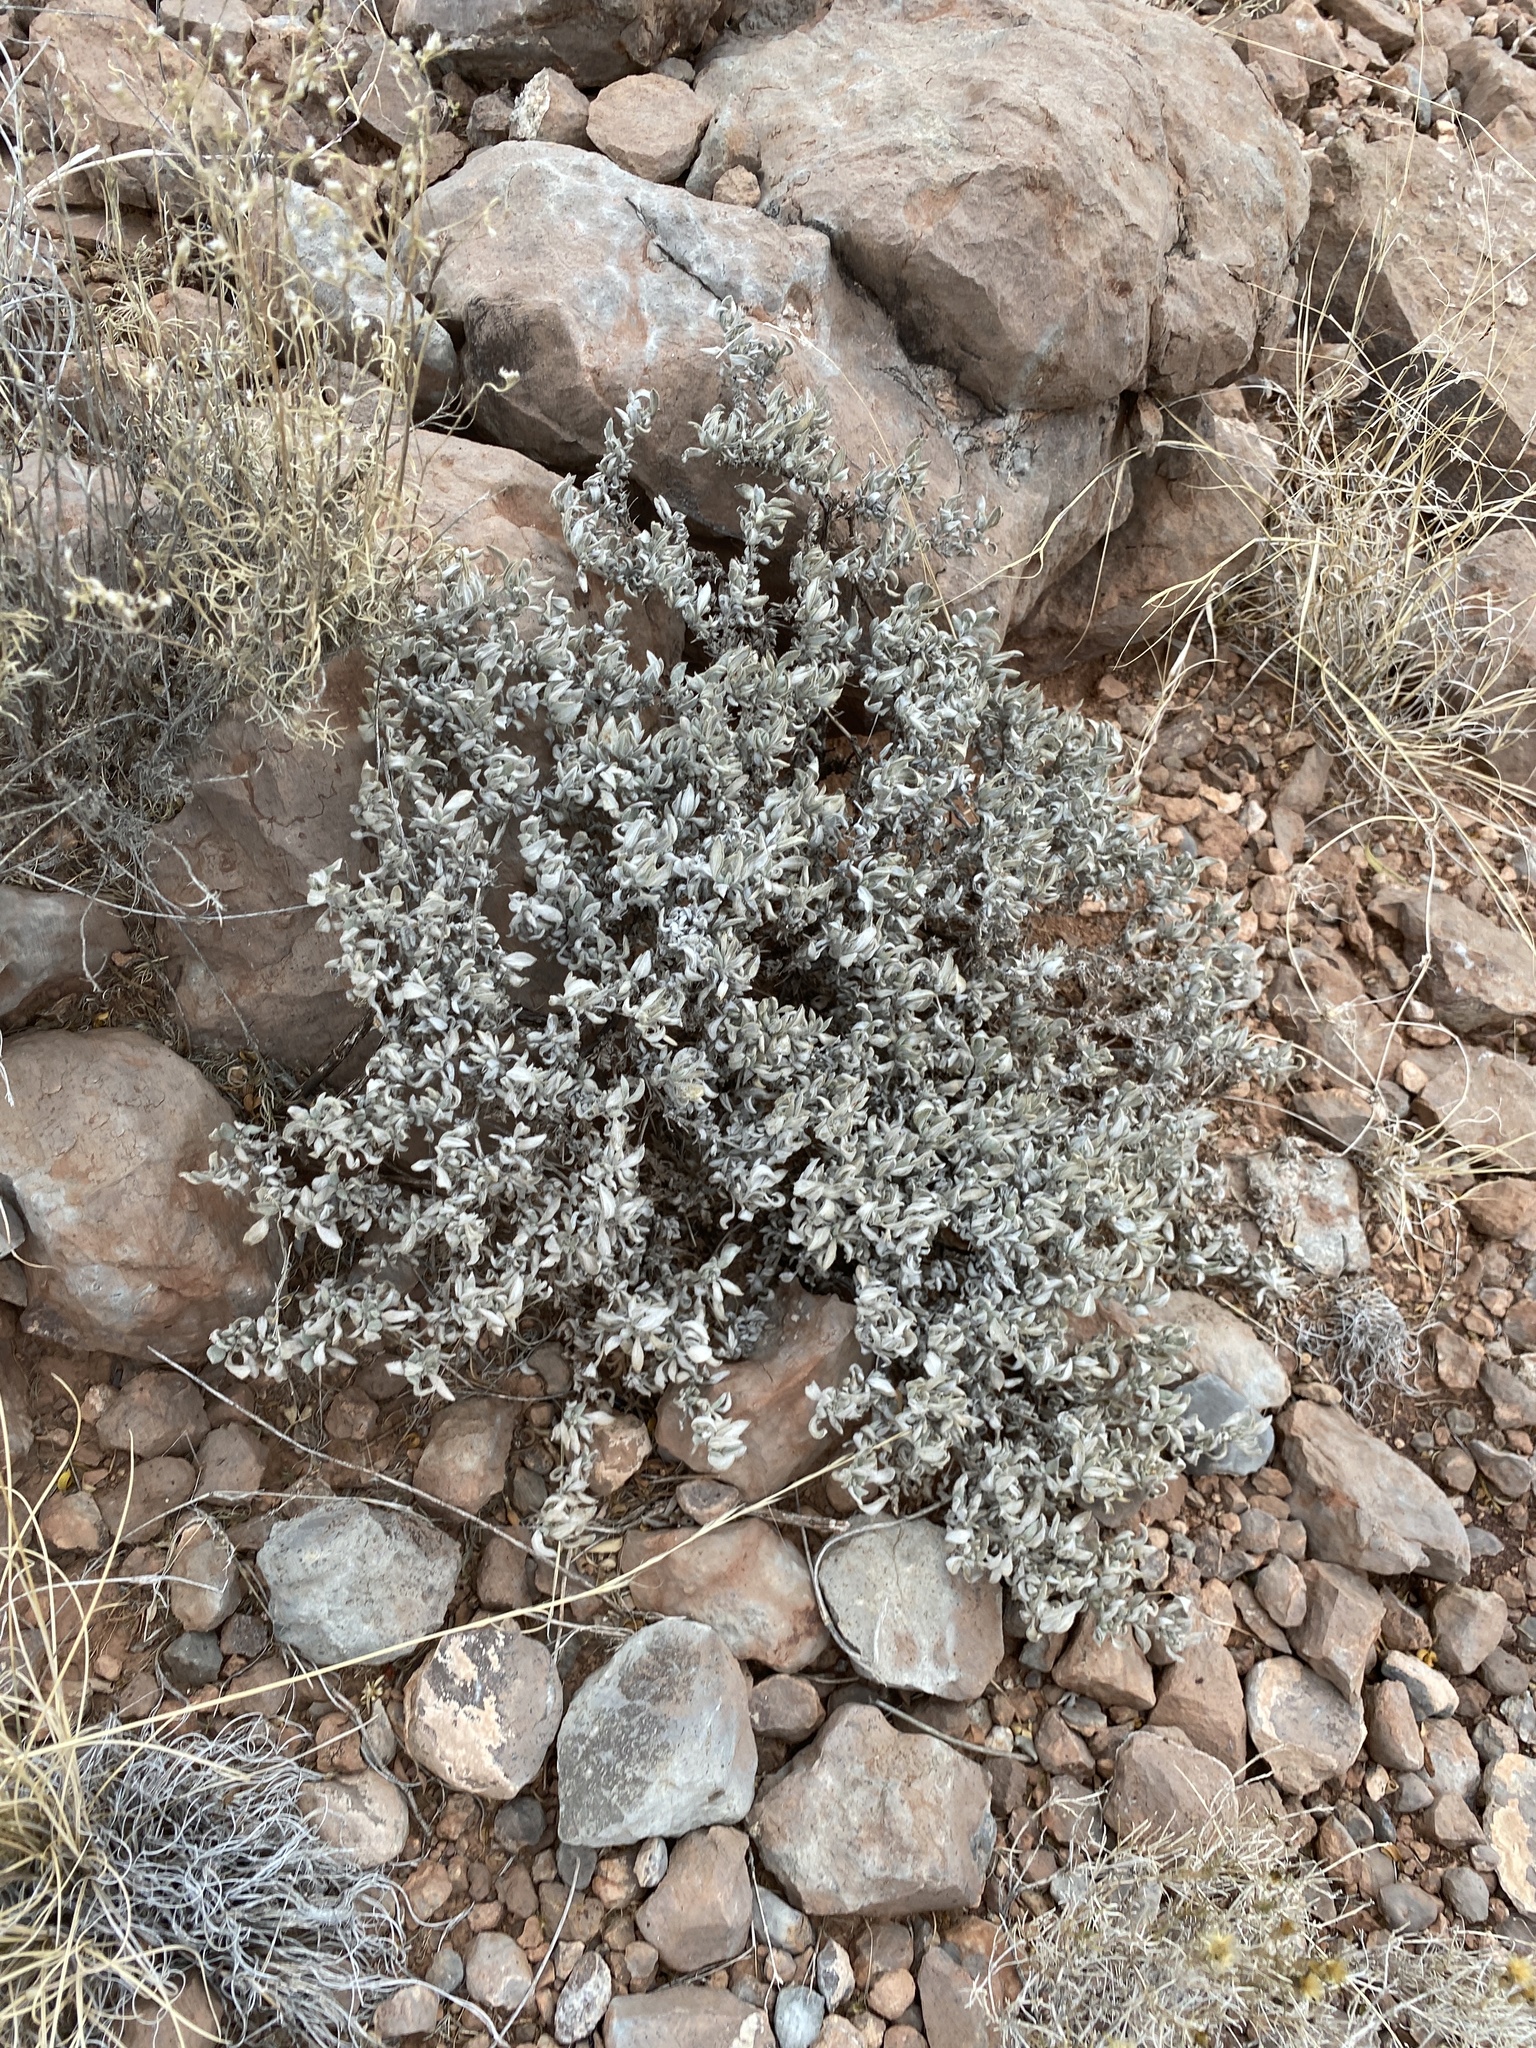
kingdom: Plantae
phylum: Tracheophyta
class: Magnoliopsida
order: Boraginales
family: Ehretiaceae
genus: Tiquilia
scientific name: Tiquilia canescens
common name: Hairy tiquilia
